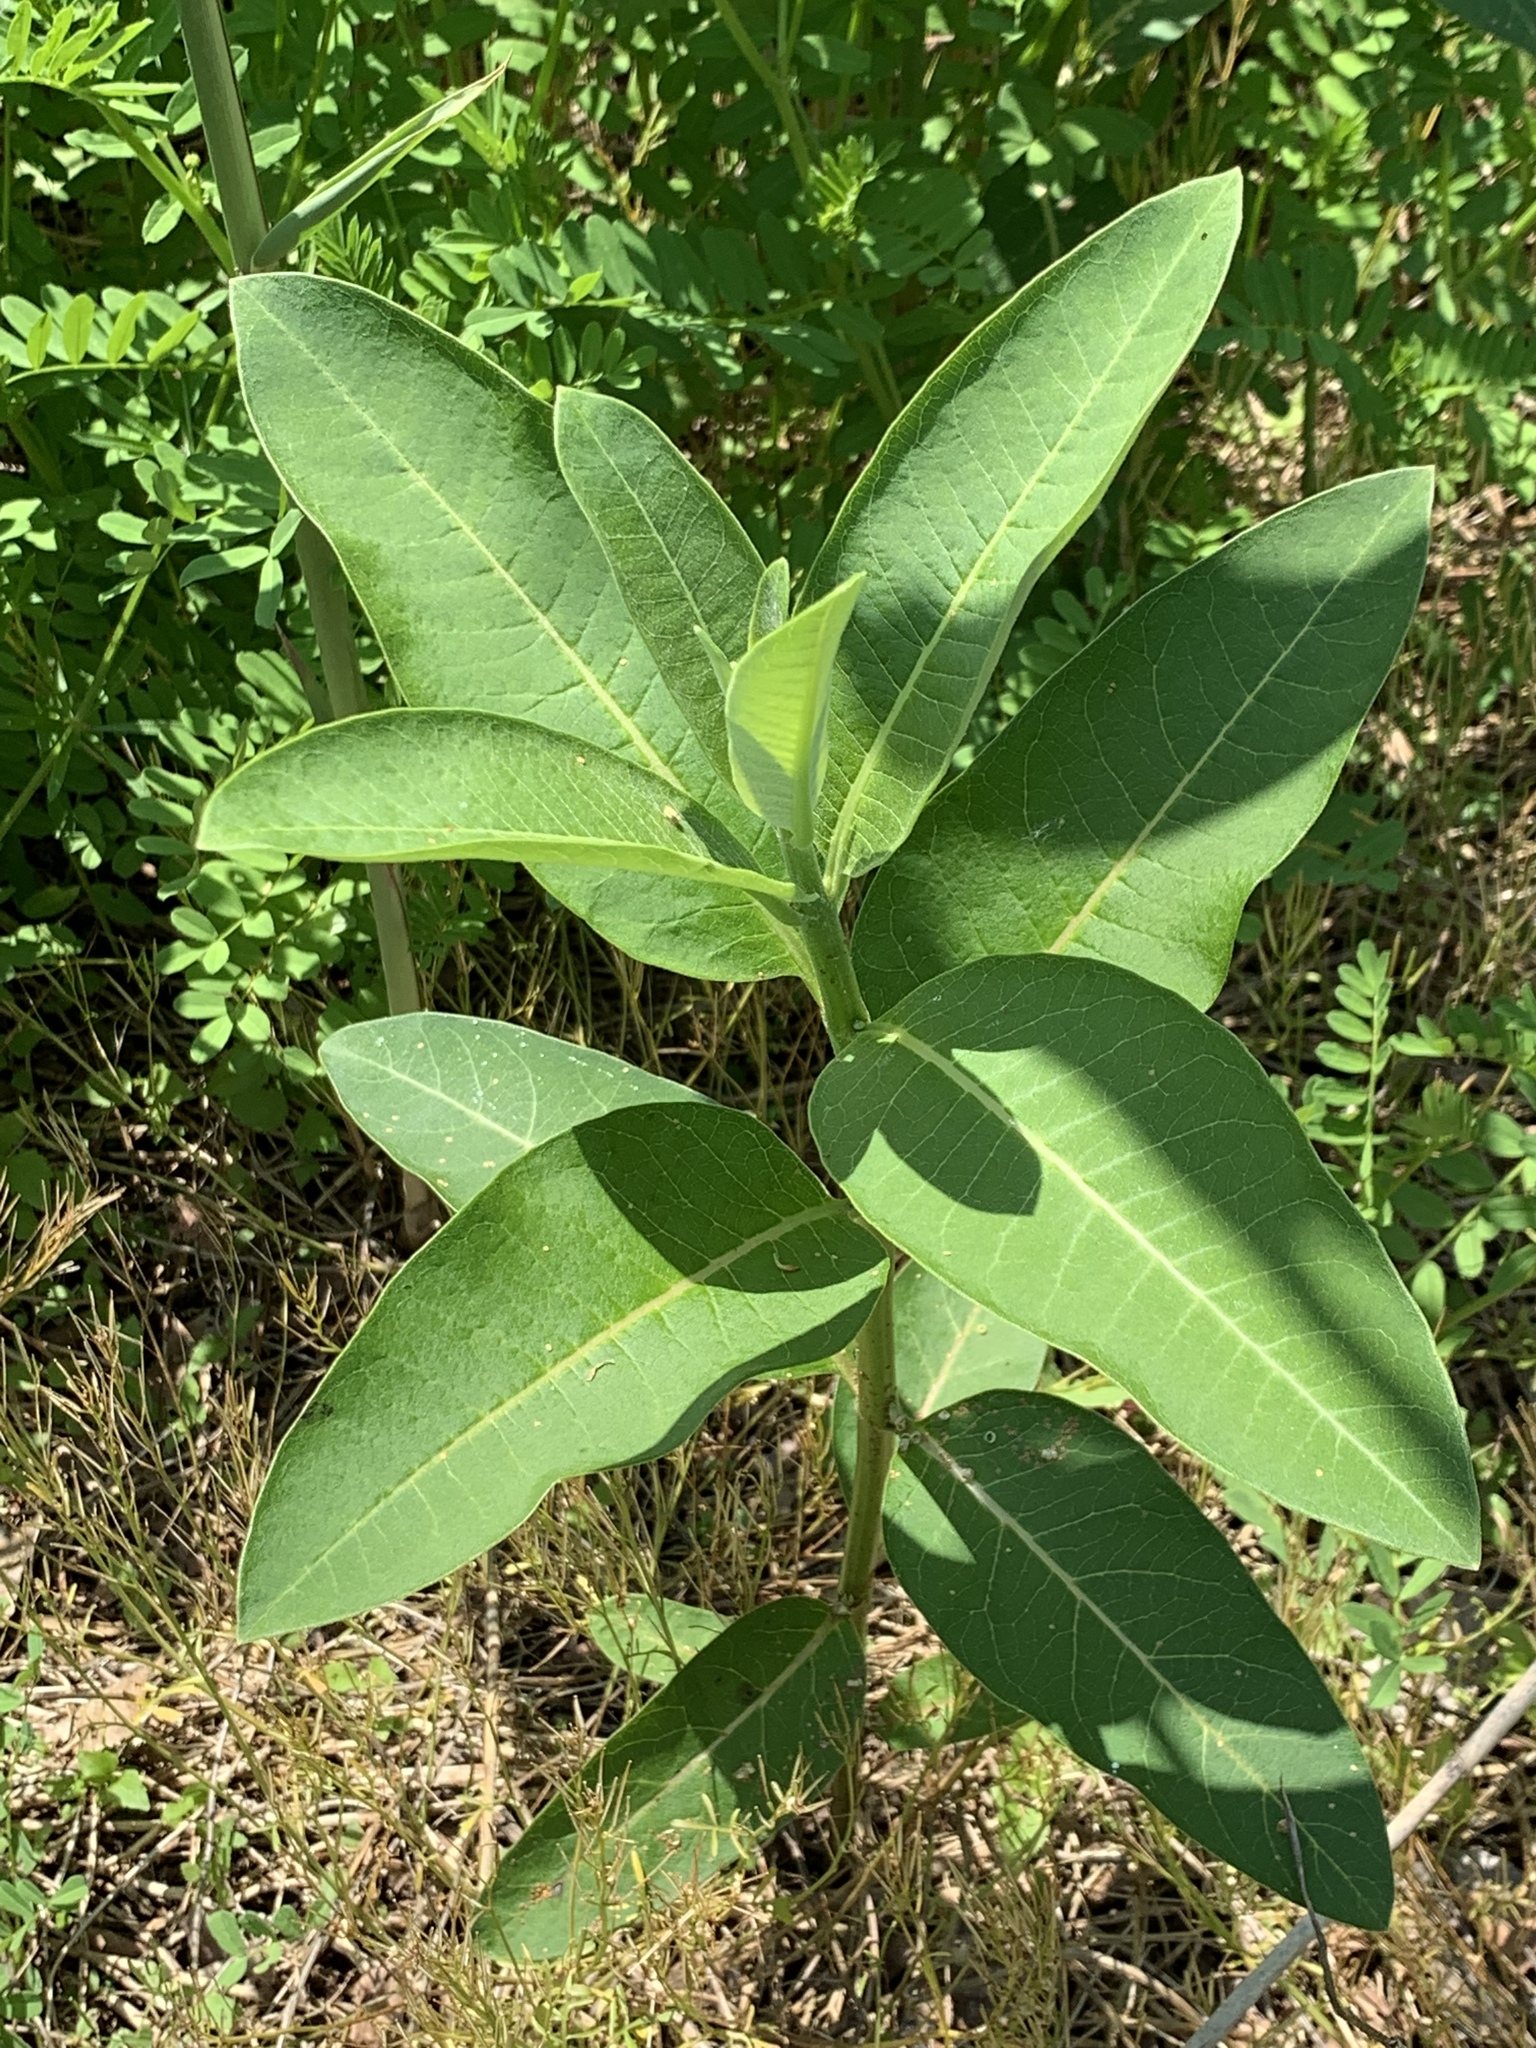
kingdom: Plantae
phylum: Tracheophyta
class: Magnoliopsida
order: Gentianales
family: Apocynaceae
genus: Asclepias
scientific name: Asclepias syriaca
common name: Common milkweed
